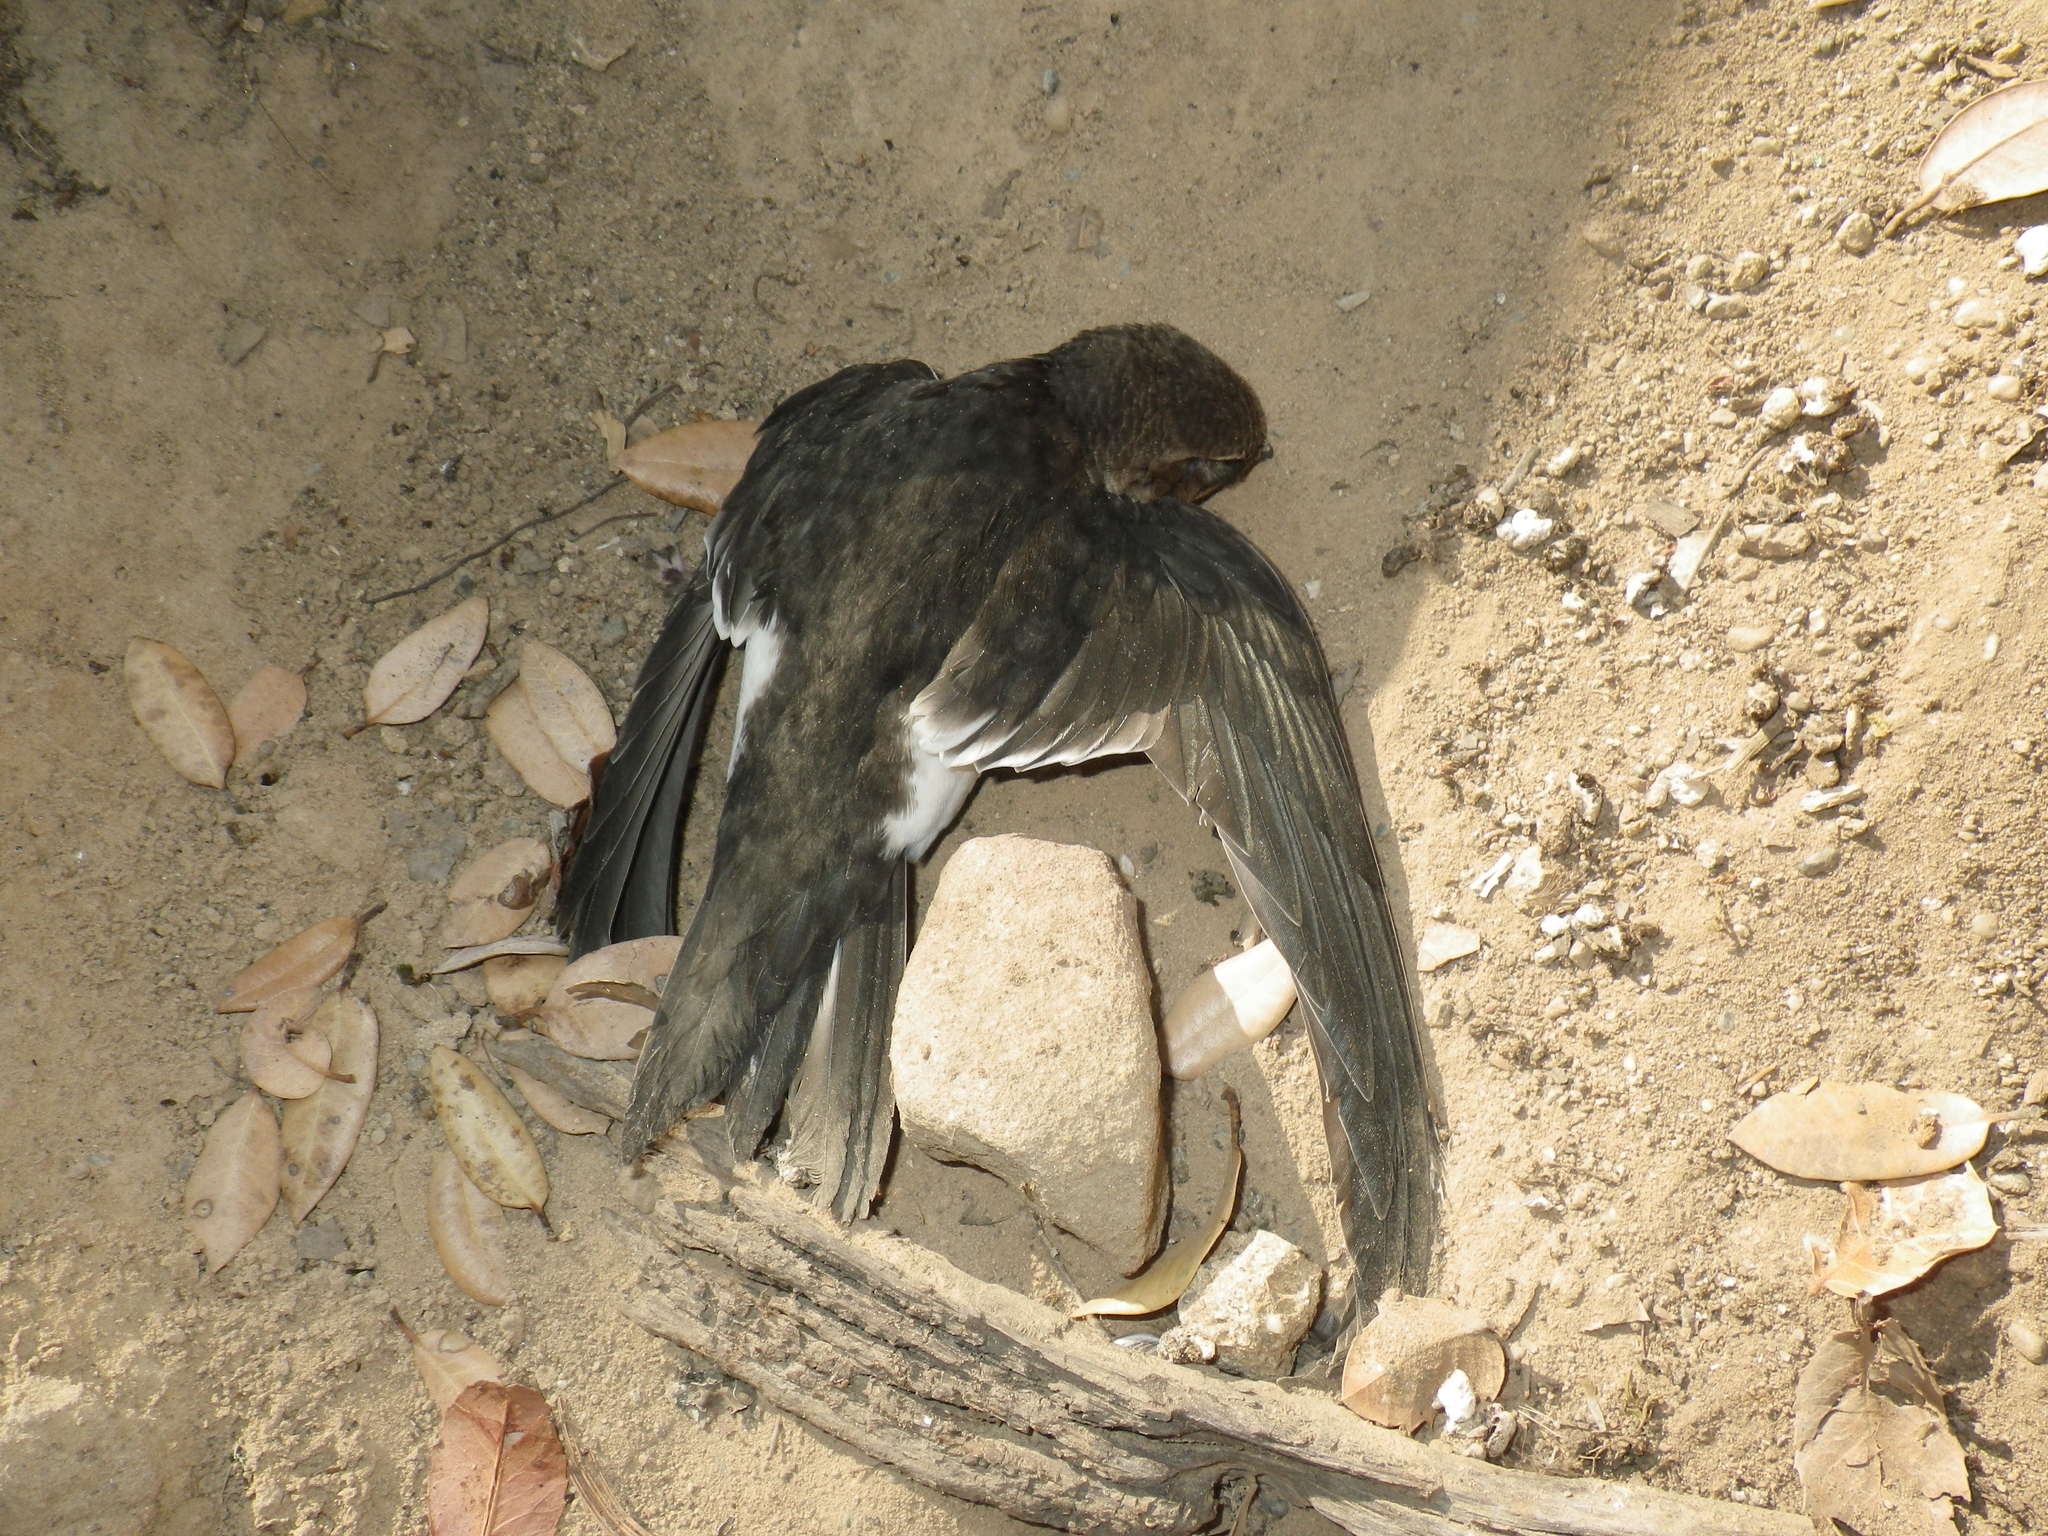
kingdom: Animalia
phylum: Chordata
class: Aves
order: Apodiformes
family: Apodidae
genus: Aeronautes
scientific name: Aeronautes saxatalis
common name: White-throated swift
